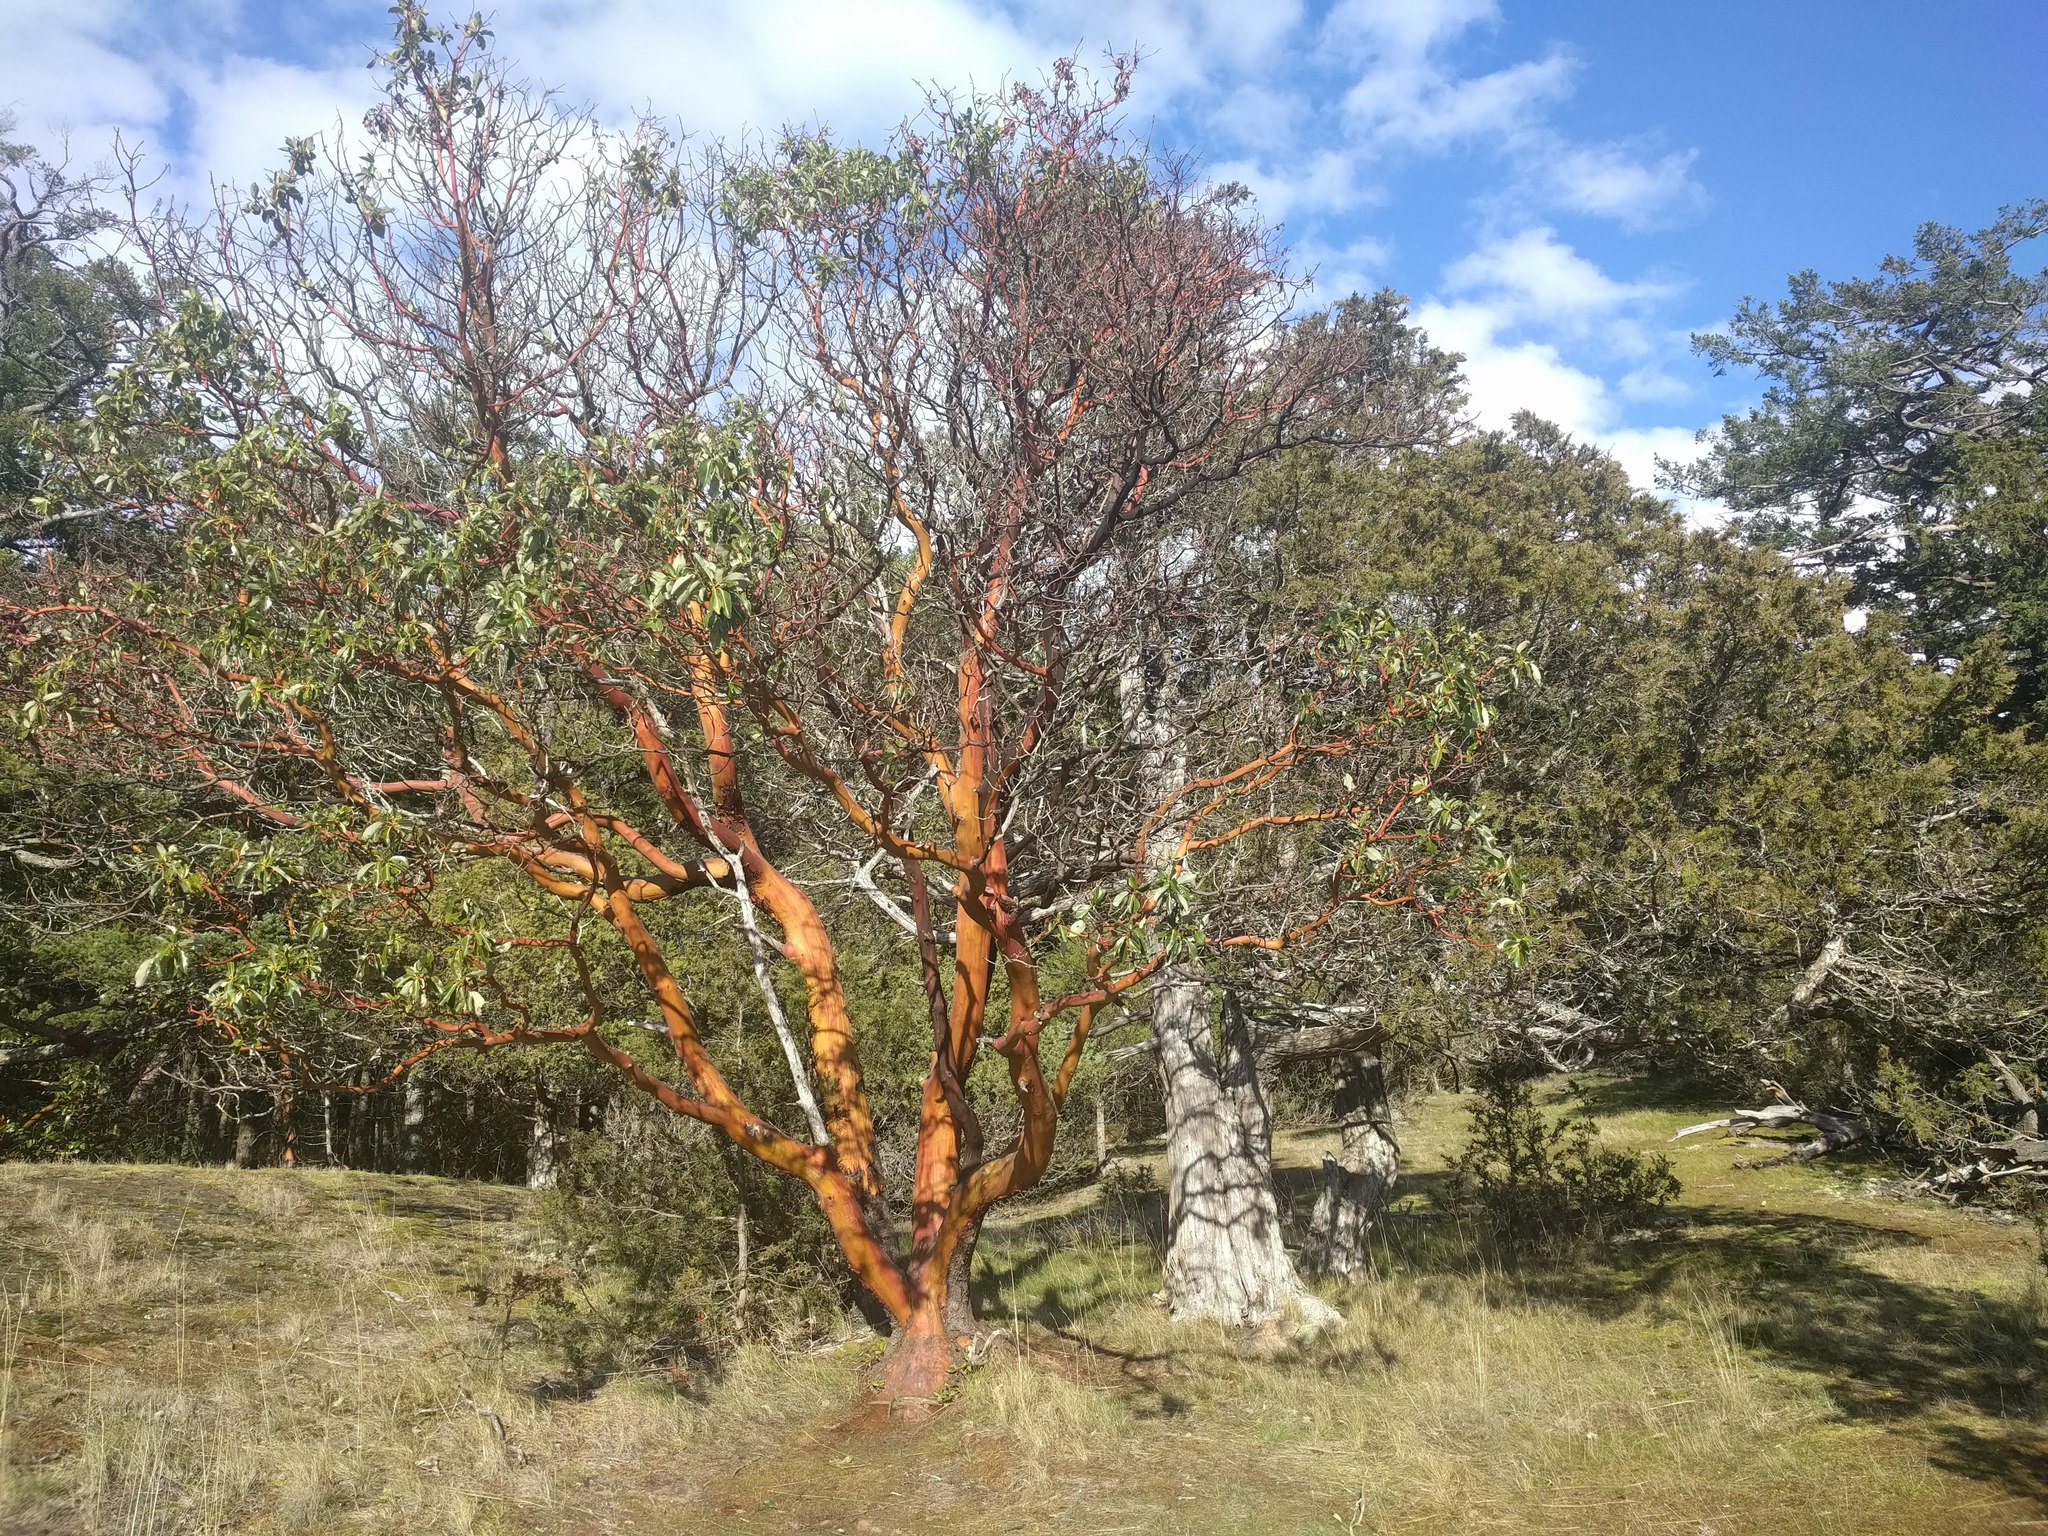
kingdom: Plantae
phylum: Tracheophyta
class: Magnoliopsida
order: Ericales
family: Ericaceae
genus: Arbutus
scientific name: Arbutus menziesii
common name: Pacific madrone
